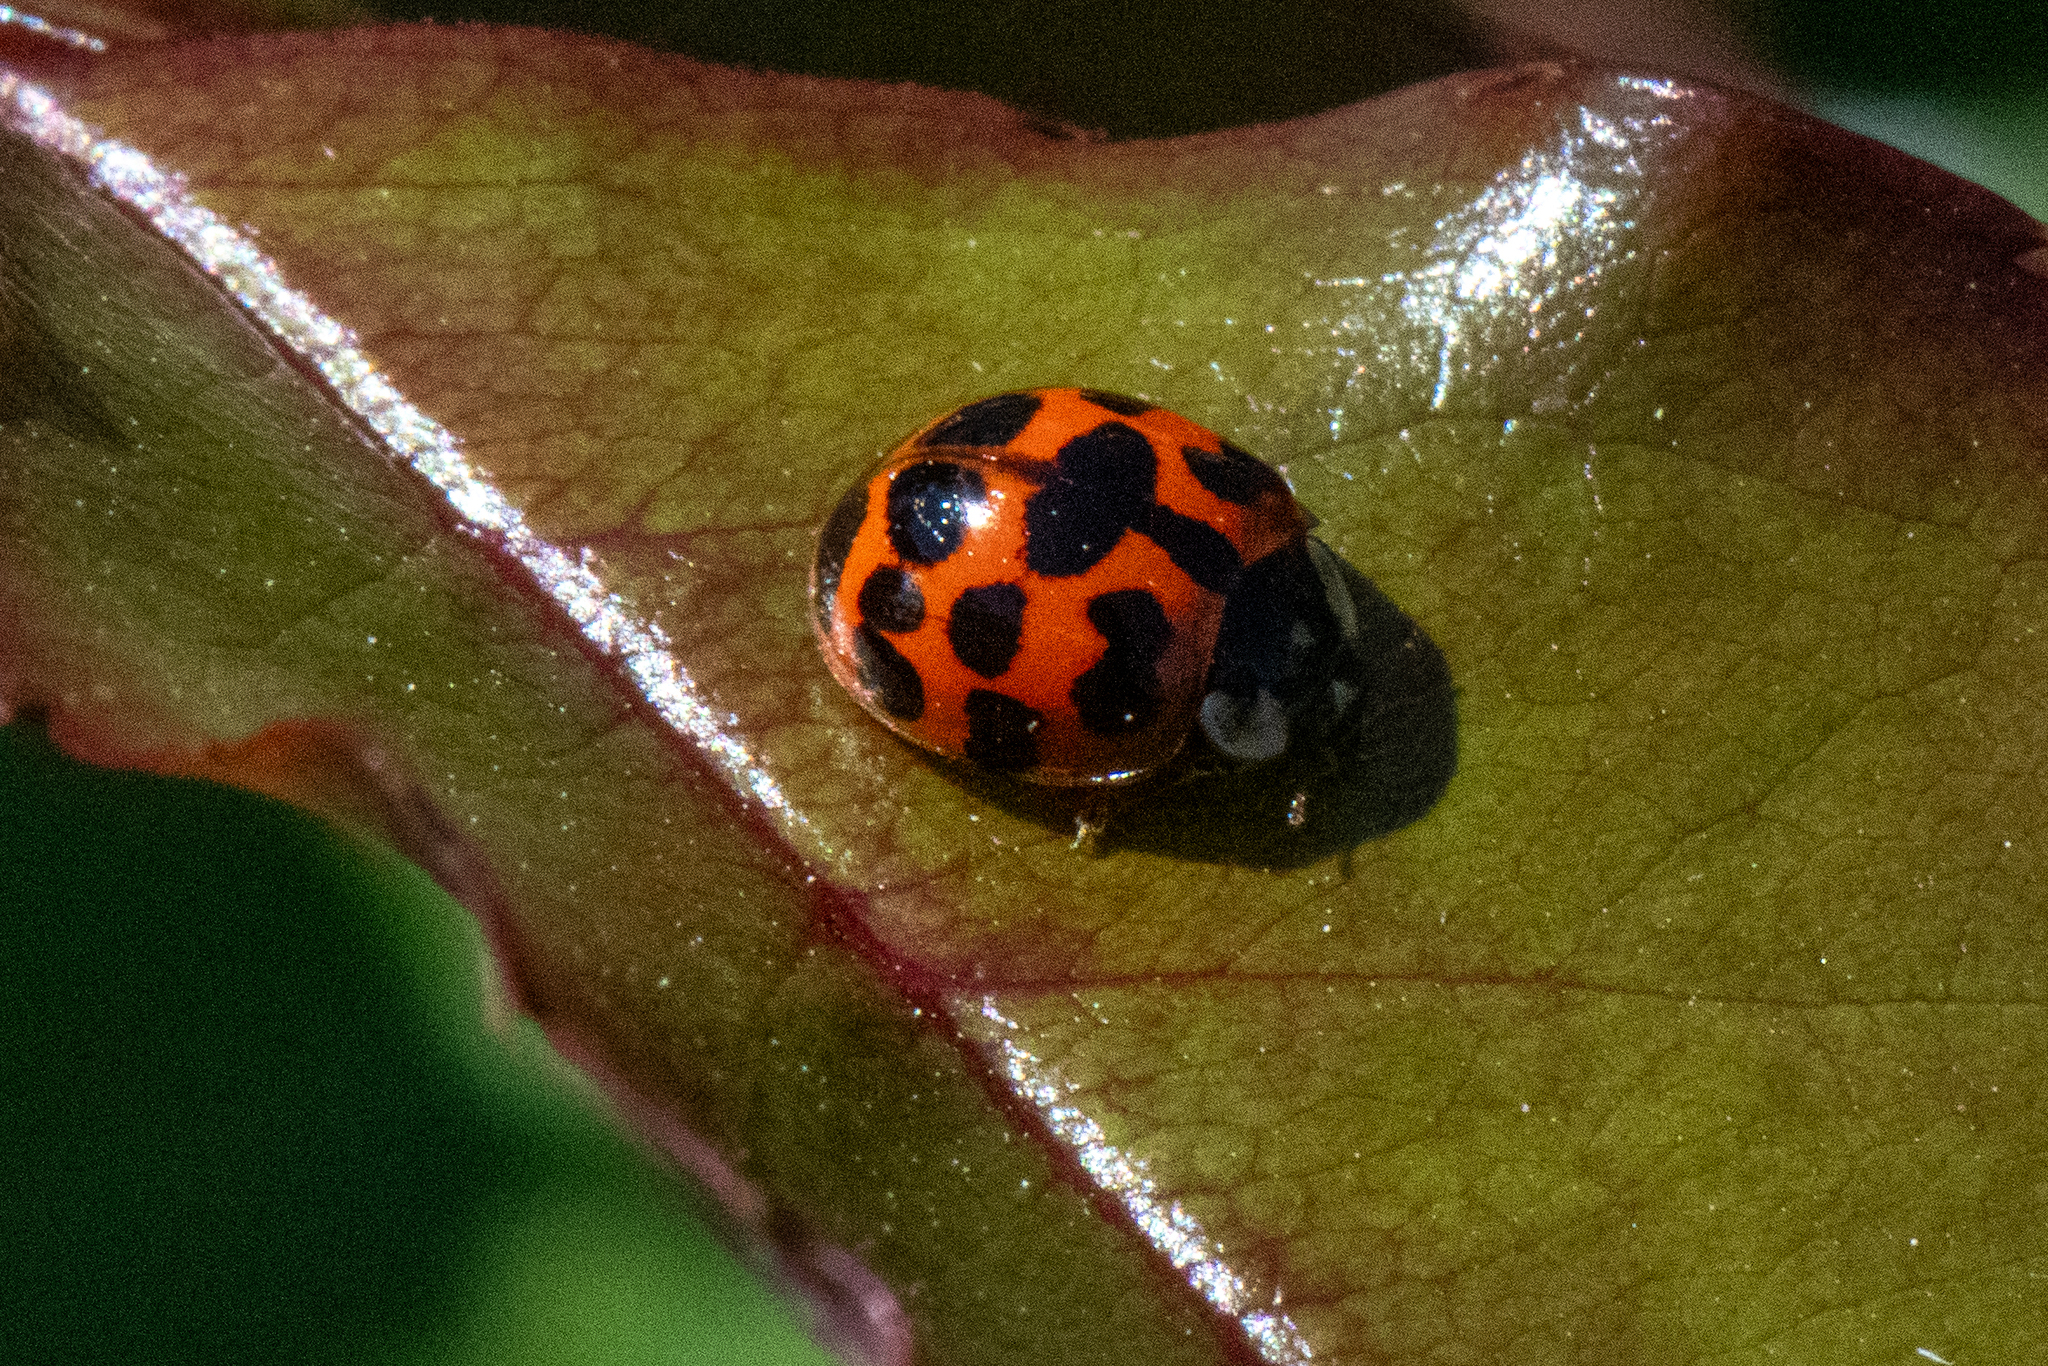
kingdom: Animalia
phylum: Arthropoda
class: Insecta
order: Coleoptera
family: Coccinellidae
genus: Harmonia
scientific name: Harmonia axyridis
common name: Harlequin ladybird
